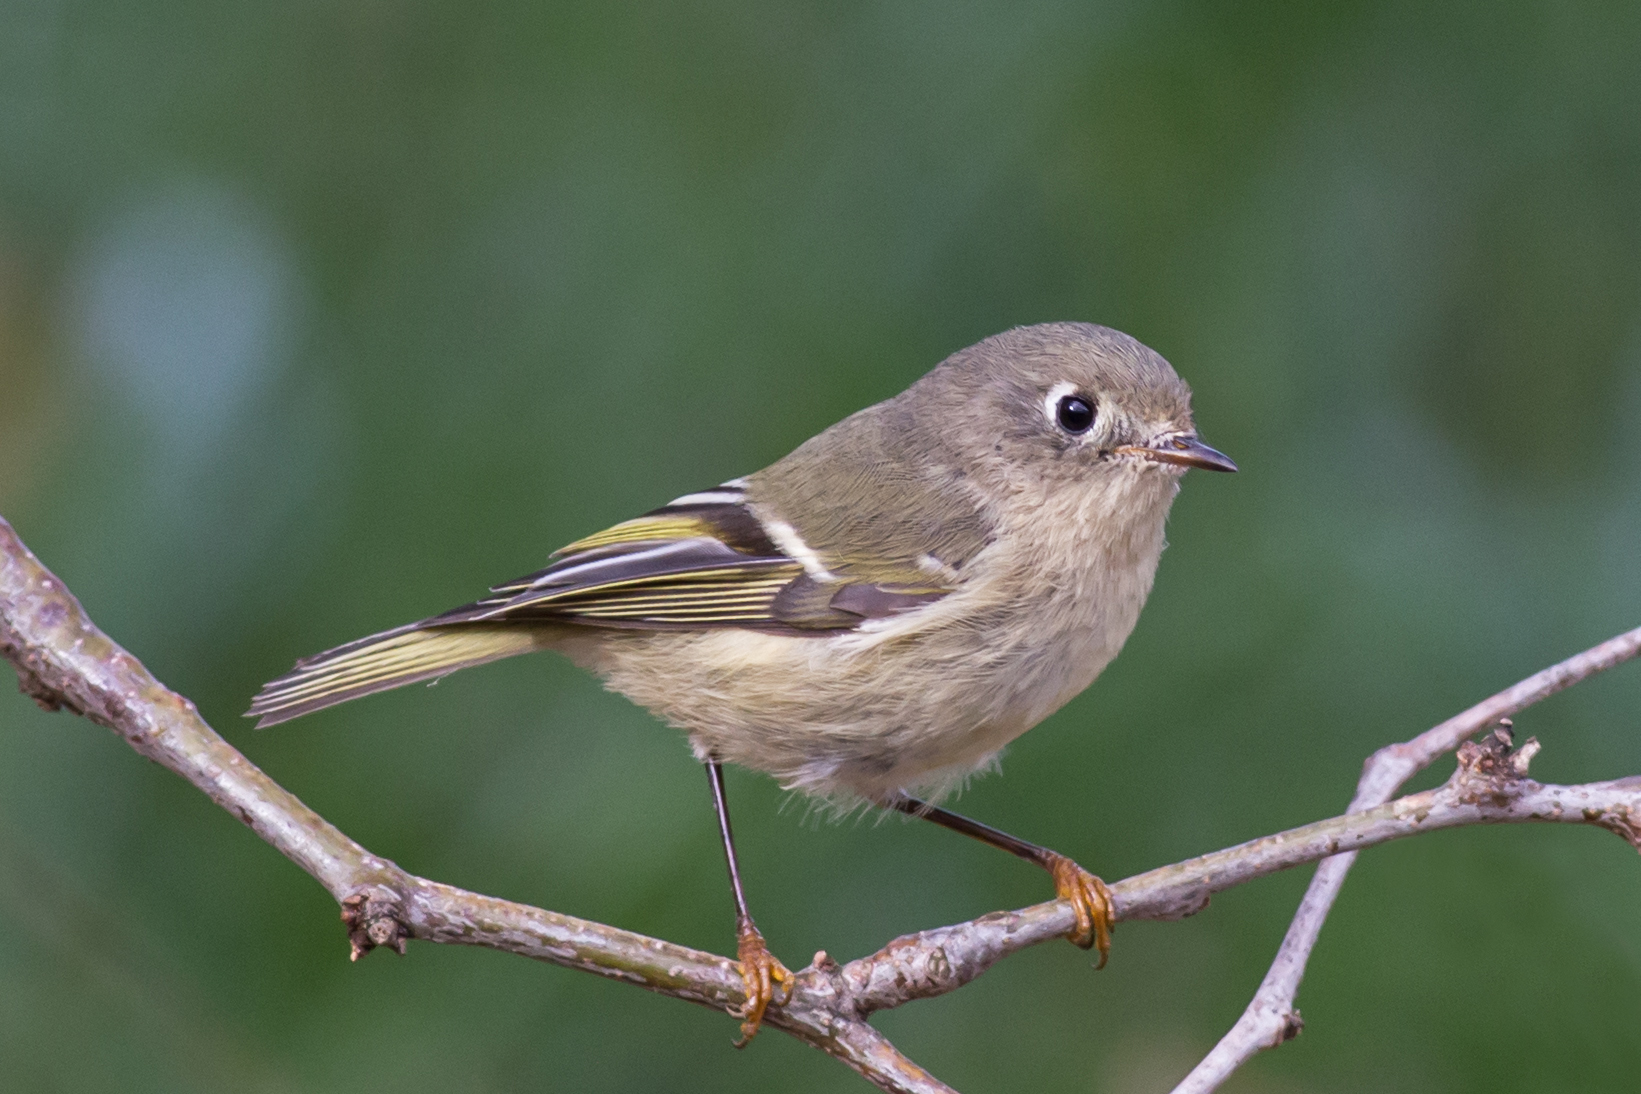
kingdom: Animalia
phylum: Chordata
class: Aves
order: Passeriformes
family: Regulidae
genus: Regulus
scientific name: Regulus calendula
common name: Ruby-crowned kinglet
